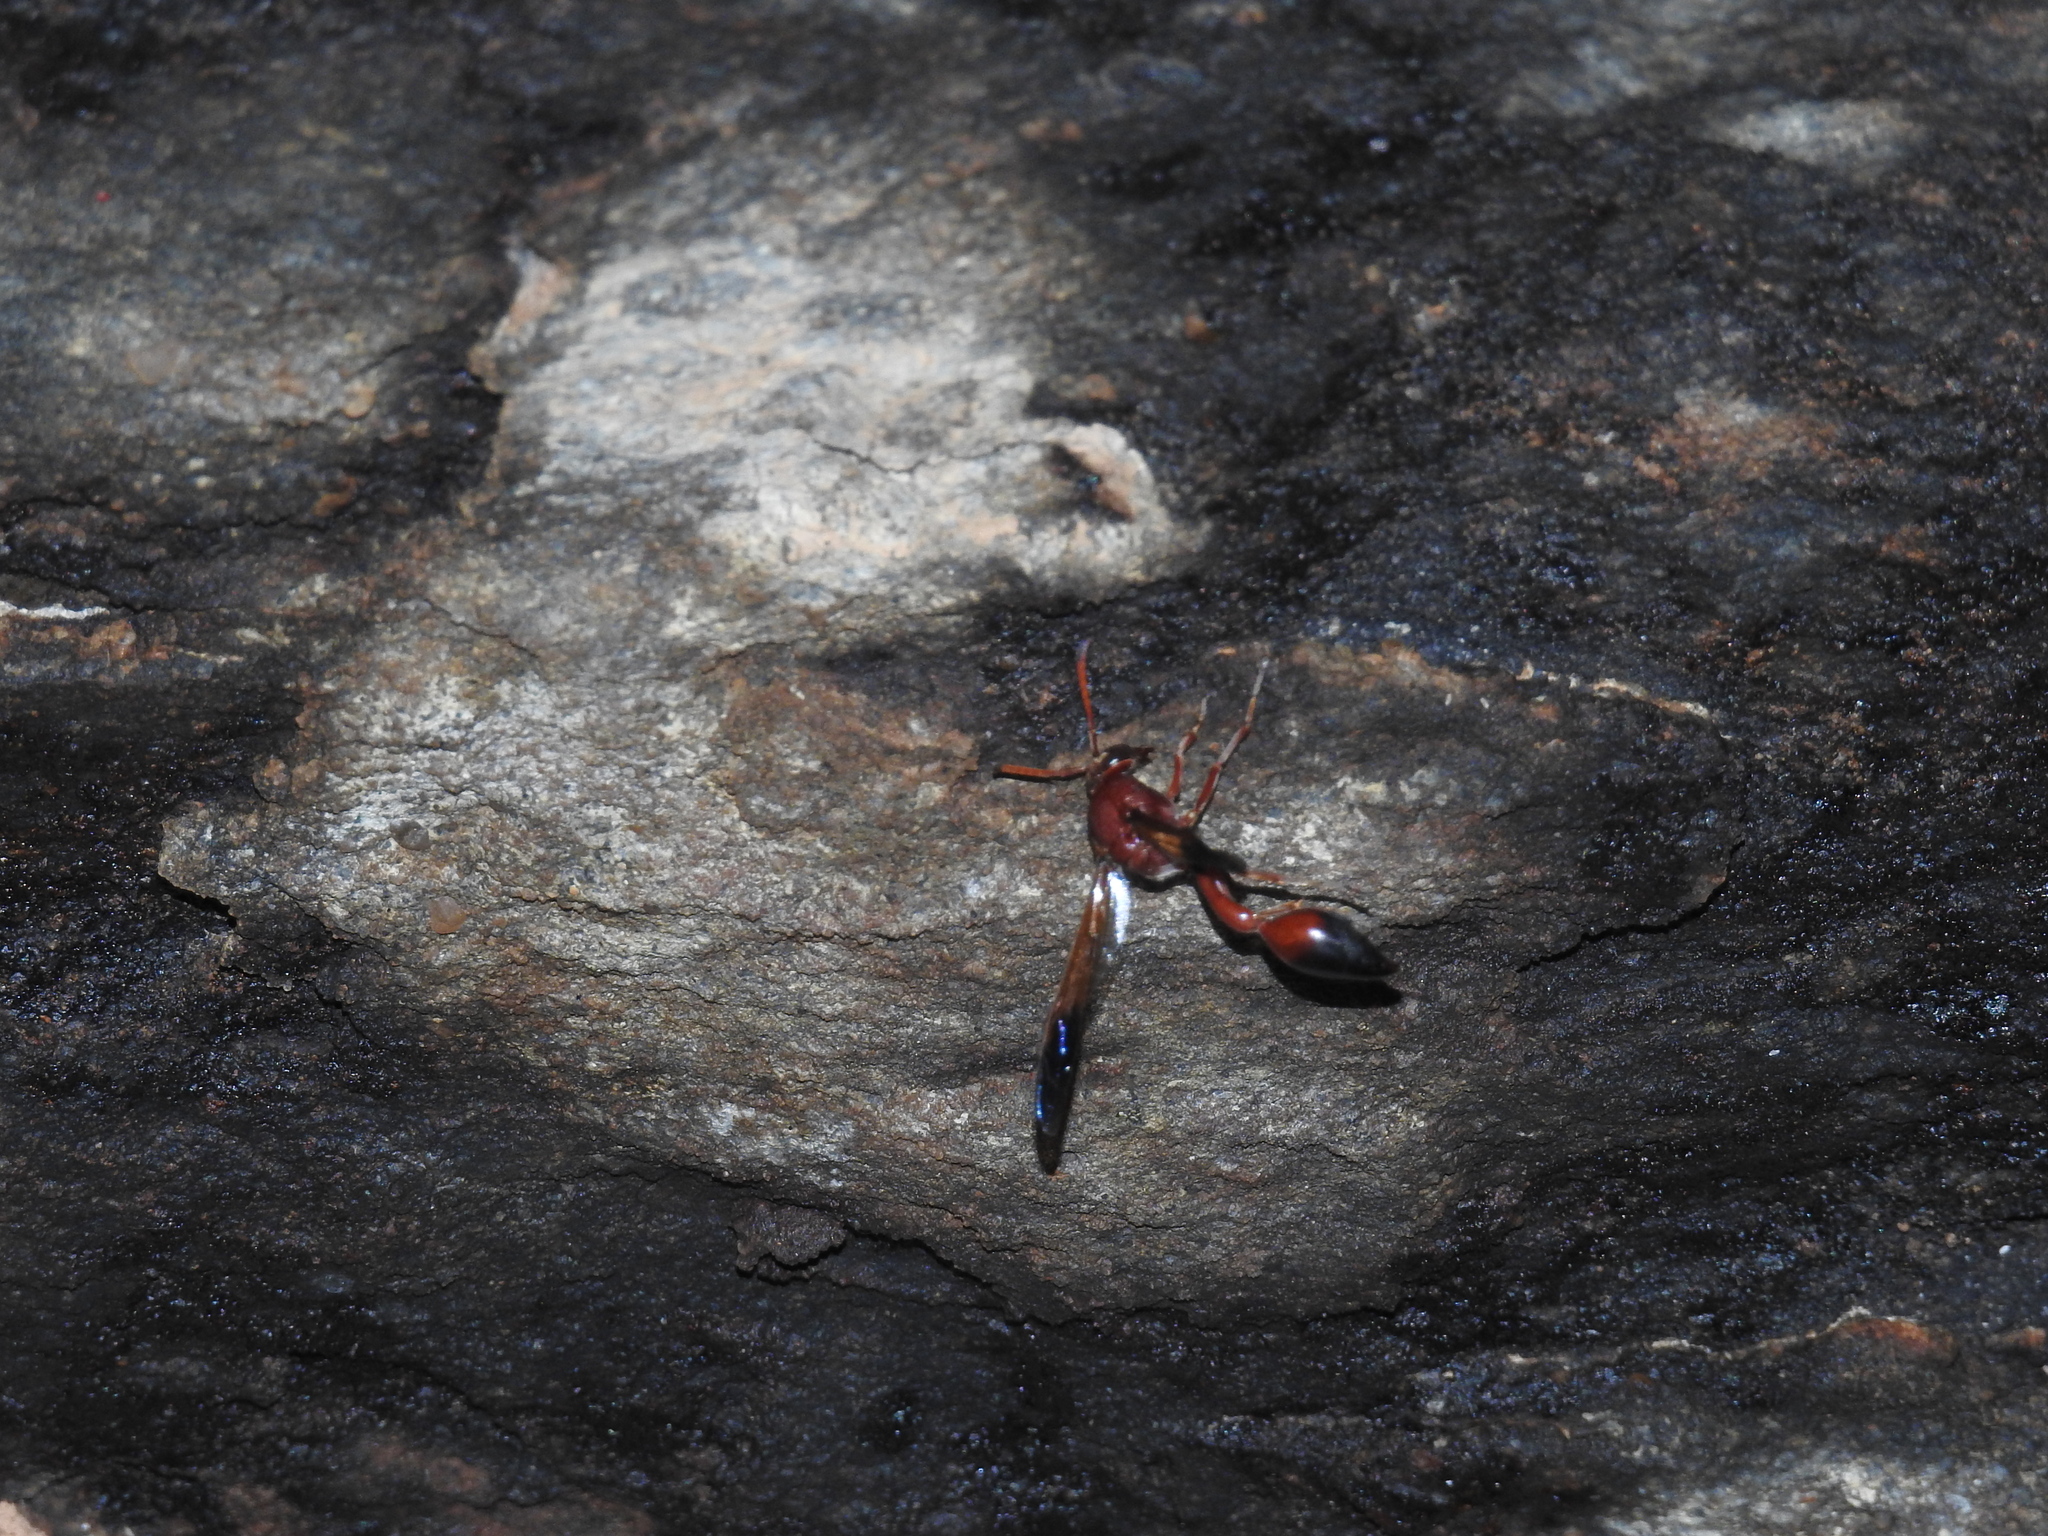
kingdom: Animalia
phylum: Arthropoda
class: Insecta
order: Hymenoptera
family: Eumenidae
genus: Delta
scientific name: Delta dimidiatipenne
